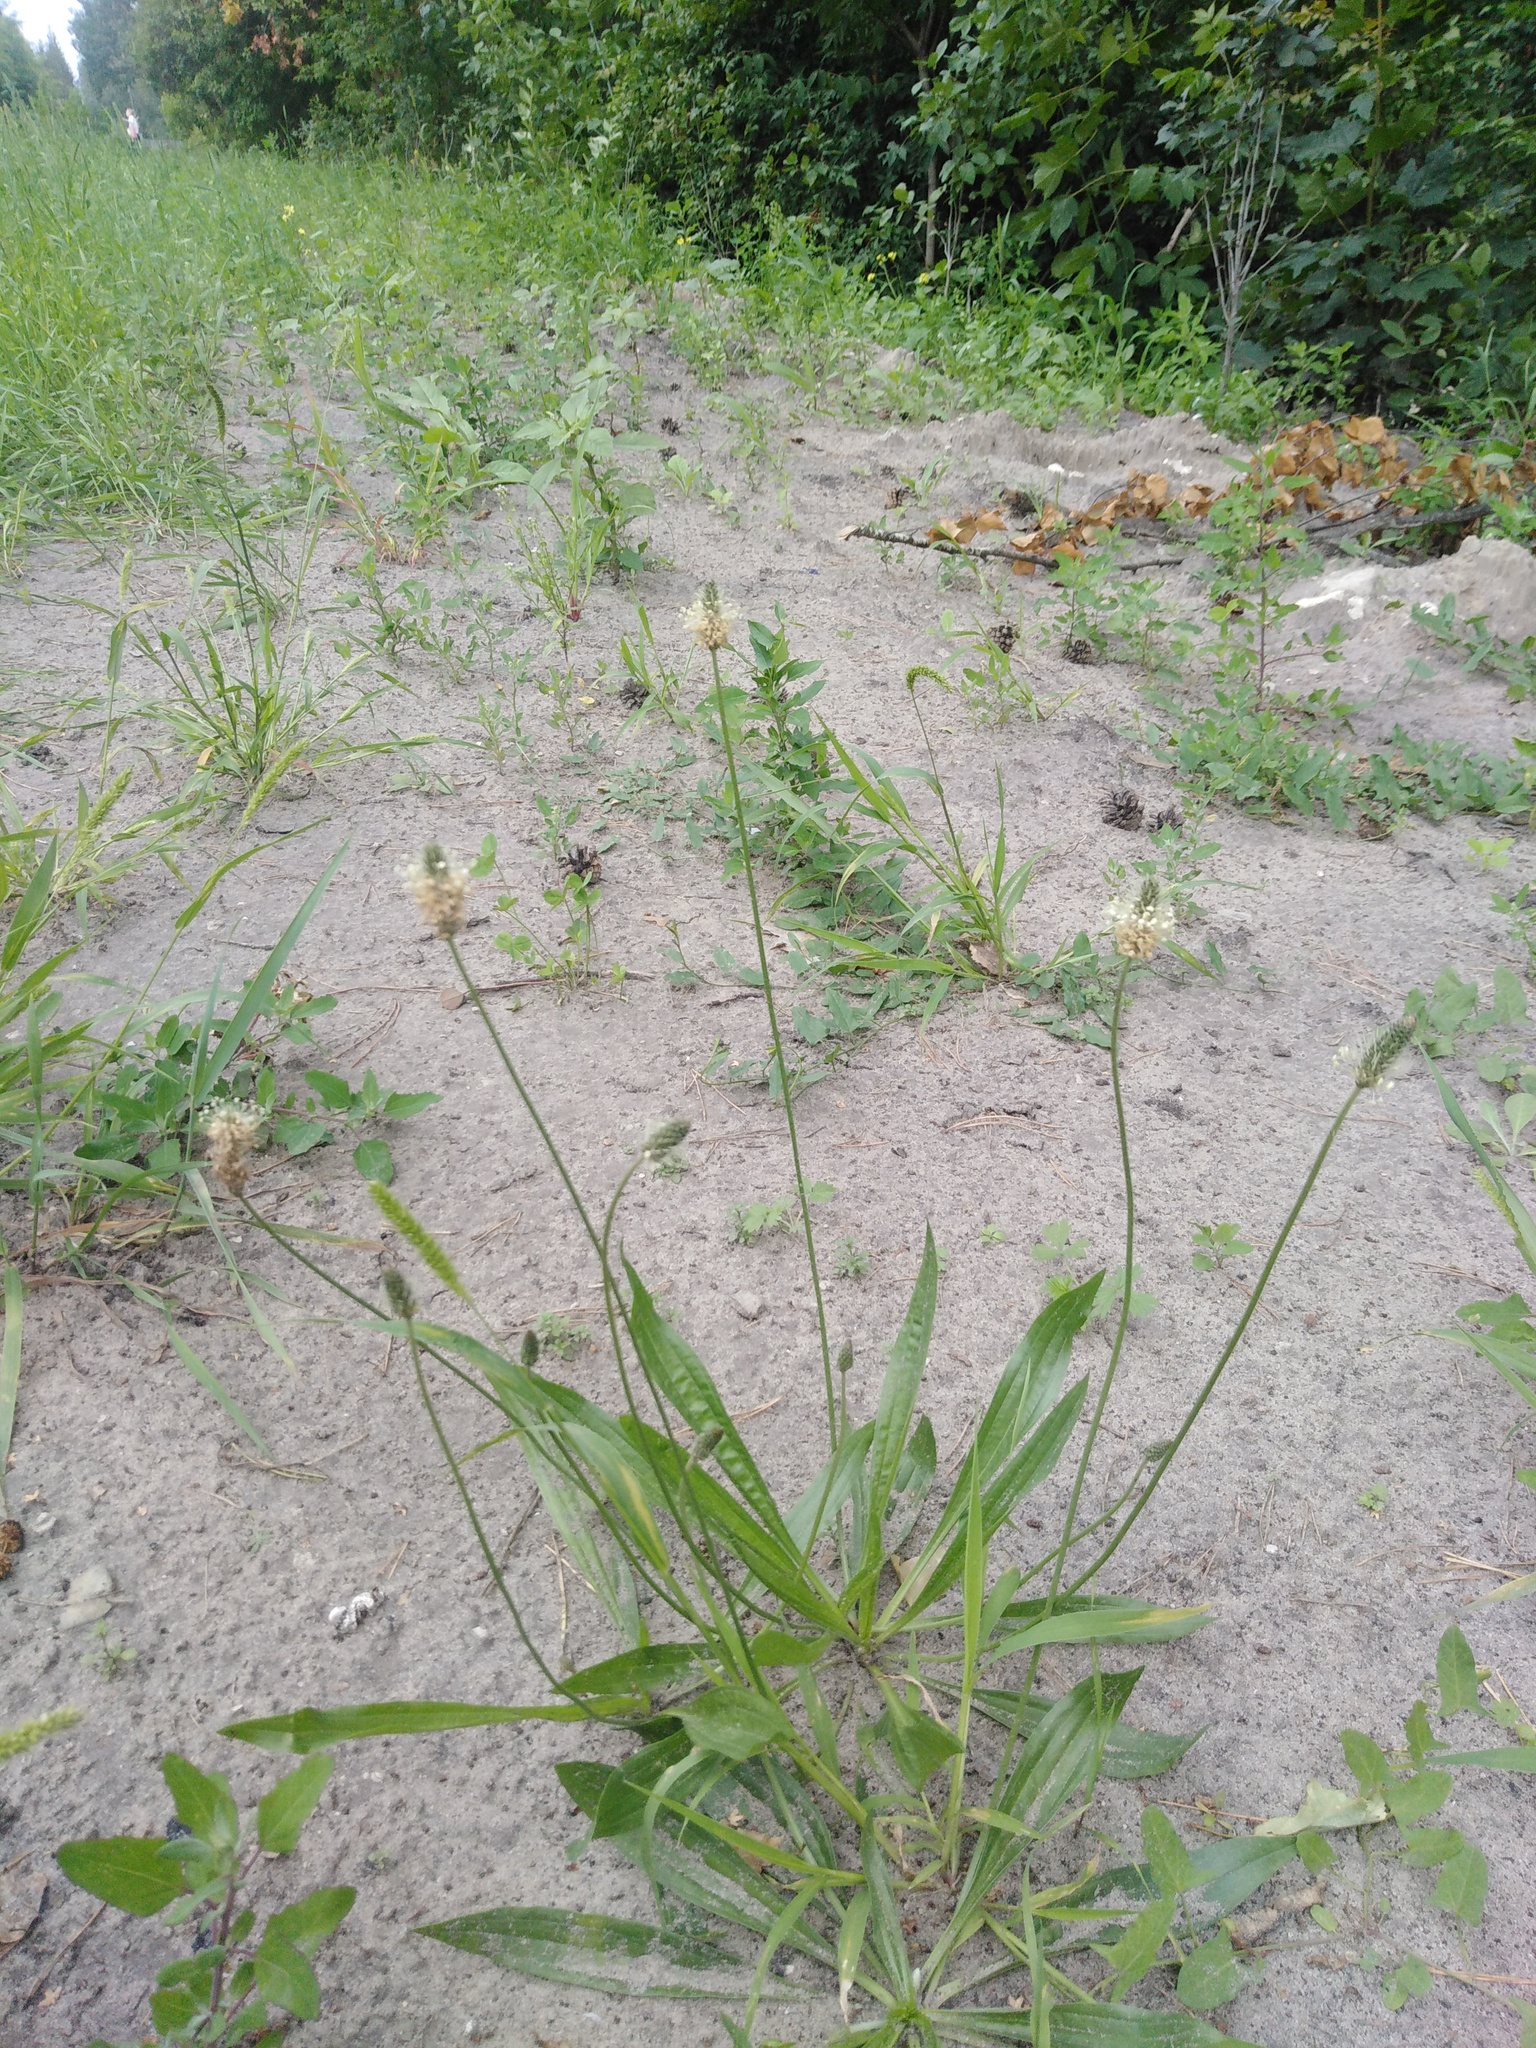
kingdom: Plantae
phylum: Tracheophyta
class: Magnoliopsida
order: Lamiales
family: Plantaginaceae
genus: Plantago
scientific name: Plantago lanceolata
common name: Ribwort plantain
